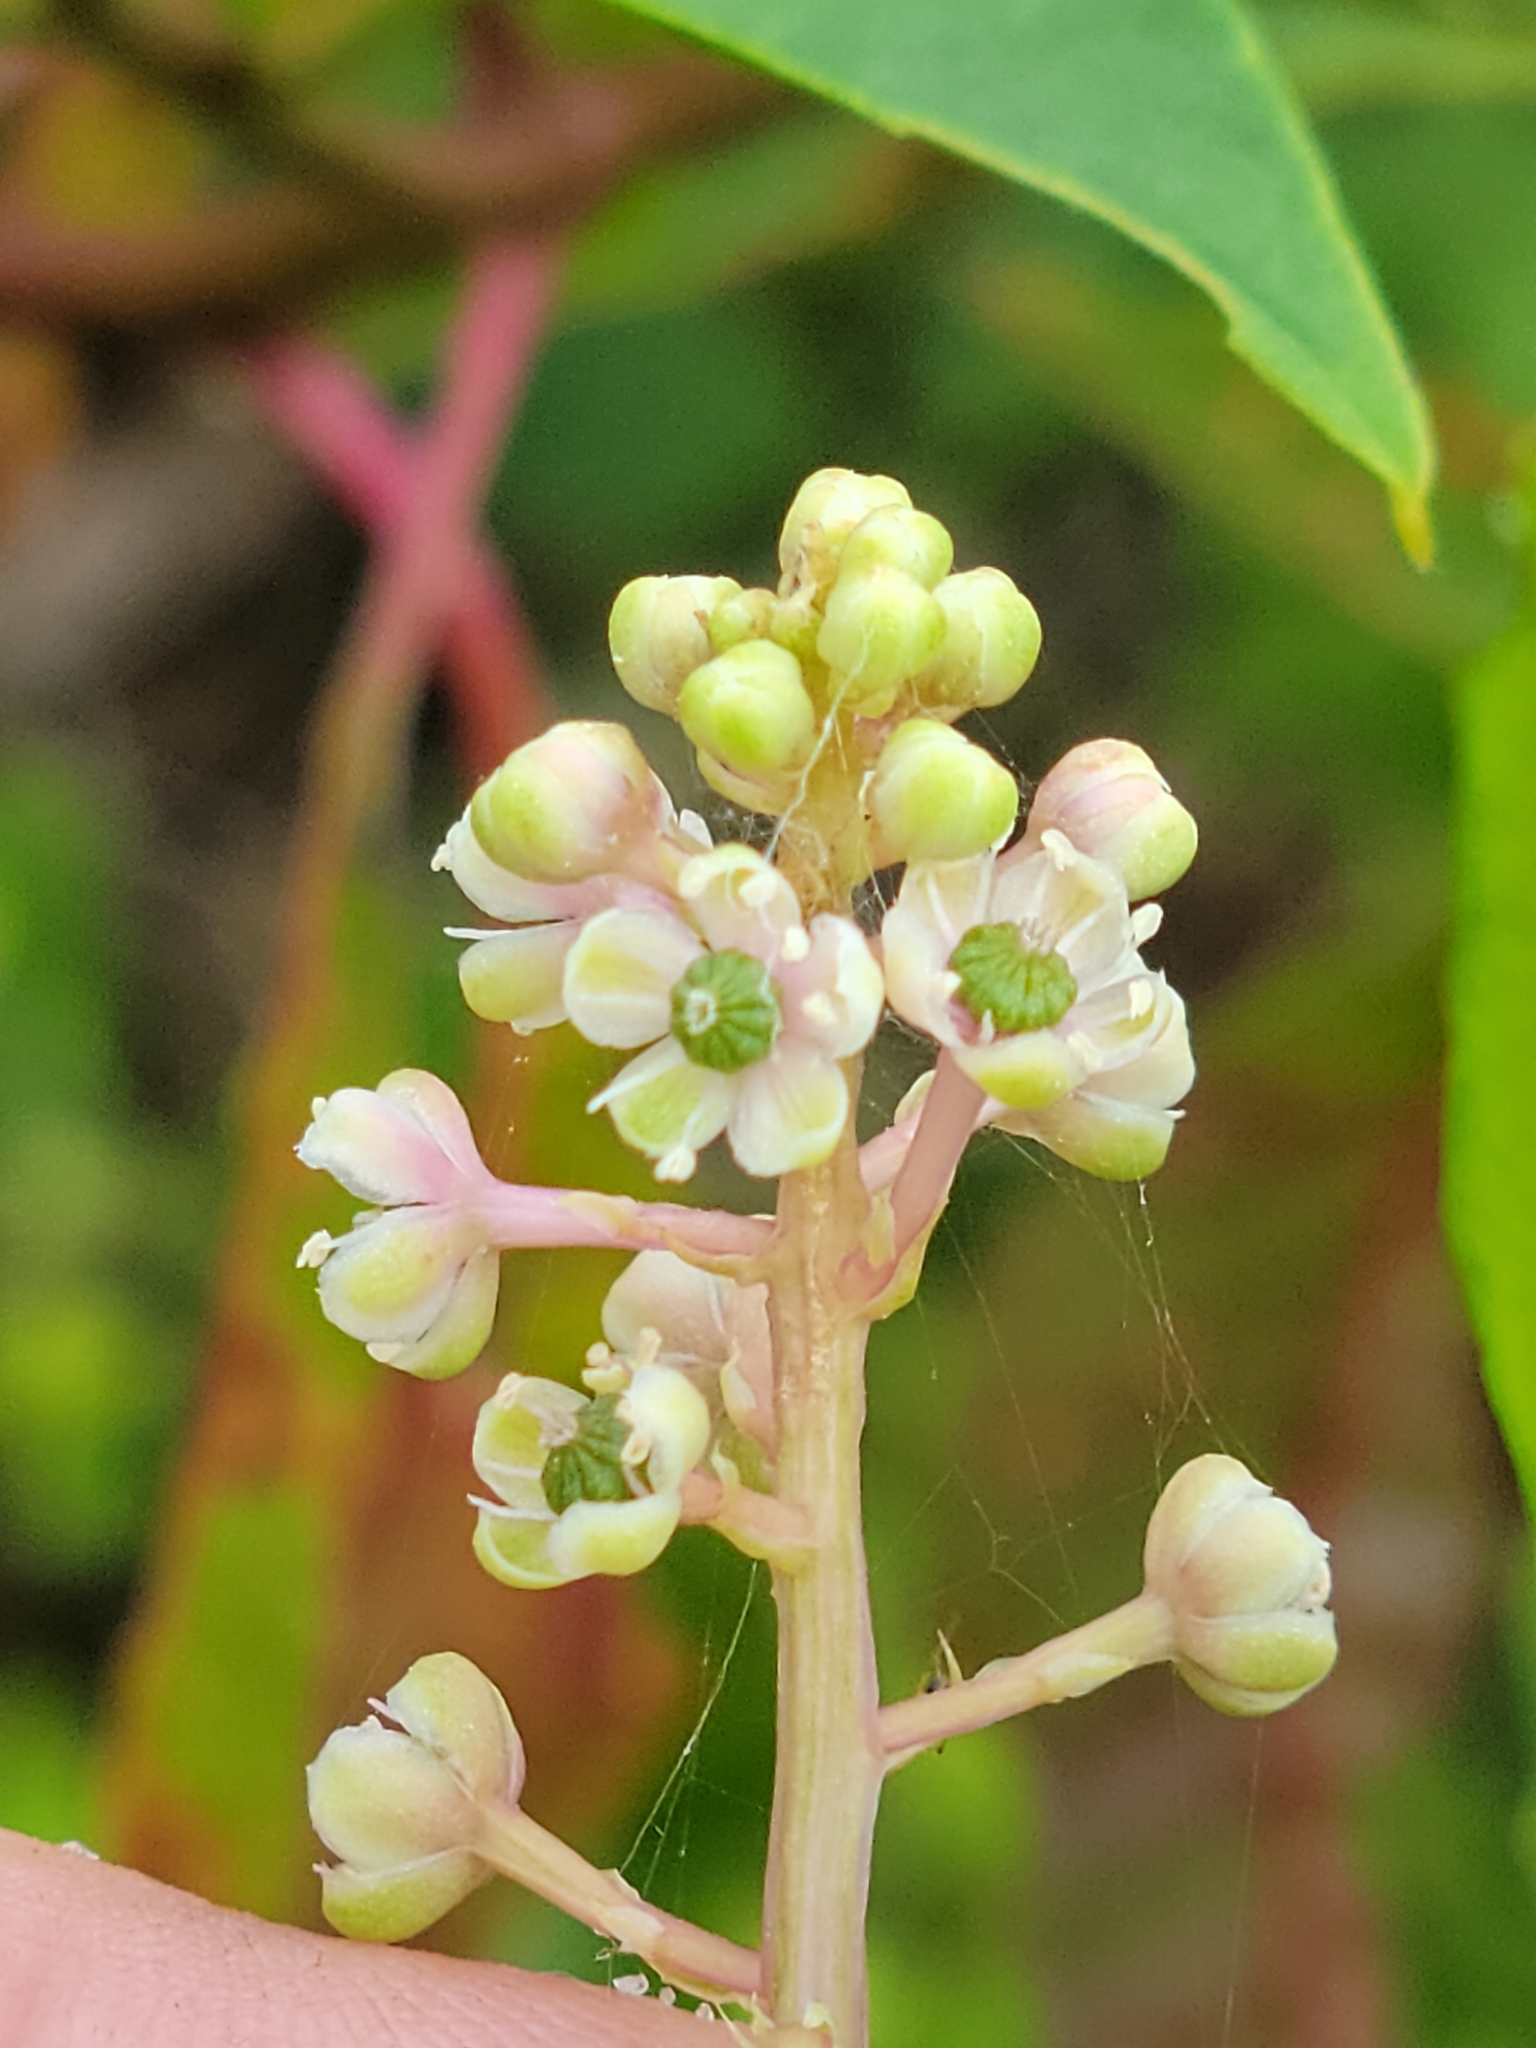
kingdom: Plantae
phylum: Tracheophyta
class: Magnoliopsida
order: Caryophyllales
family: Phytolaccaceae
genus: Phytolacca
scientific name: Phytolacca americana
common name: American pokeweed
